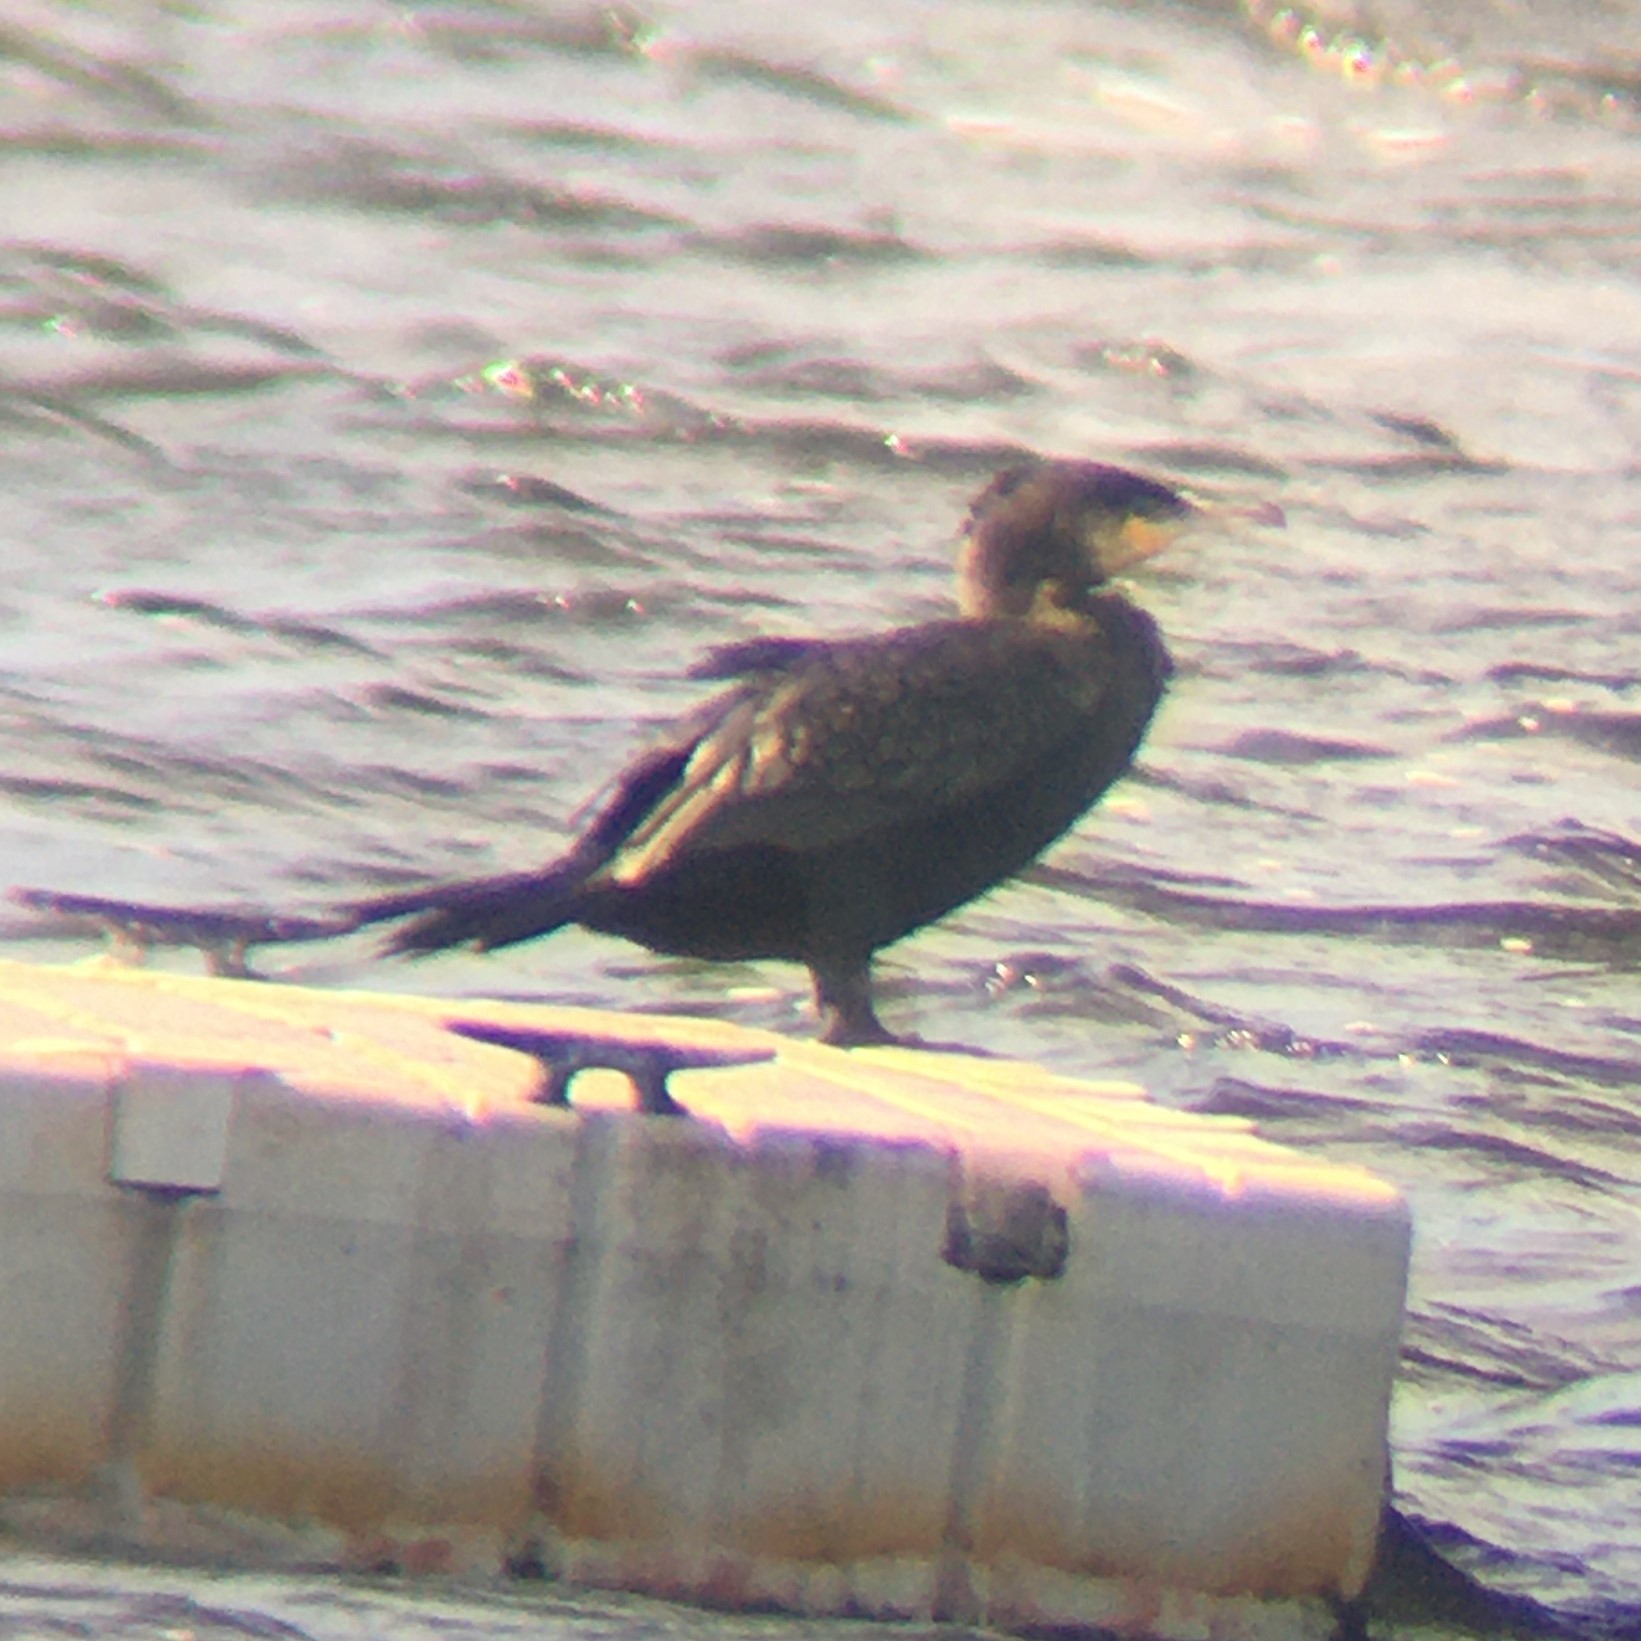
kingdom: Animalia
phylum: Chordata
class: Aves
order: Suliformes
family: Phalacrocoracidae
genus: Phalacrocorax
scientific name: Phalacrocorax carbo
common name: Great cormorant
